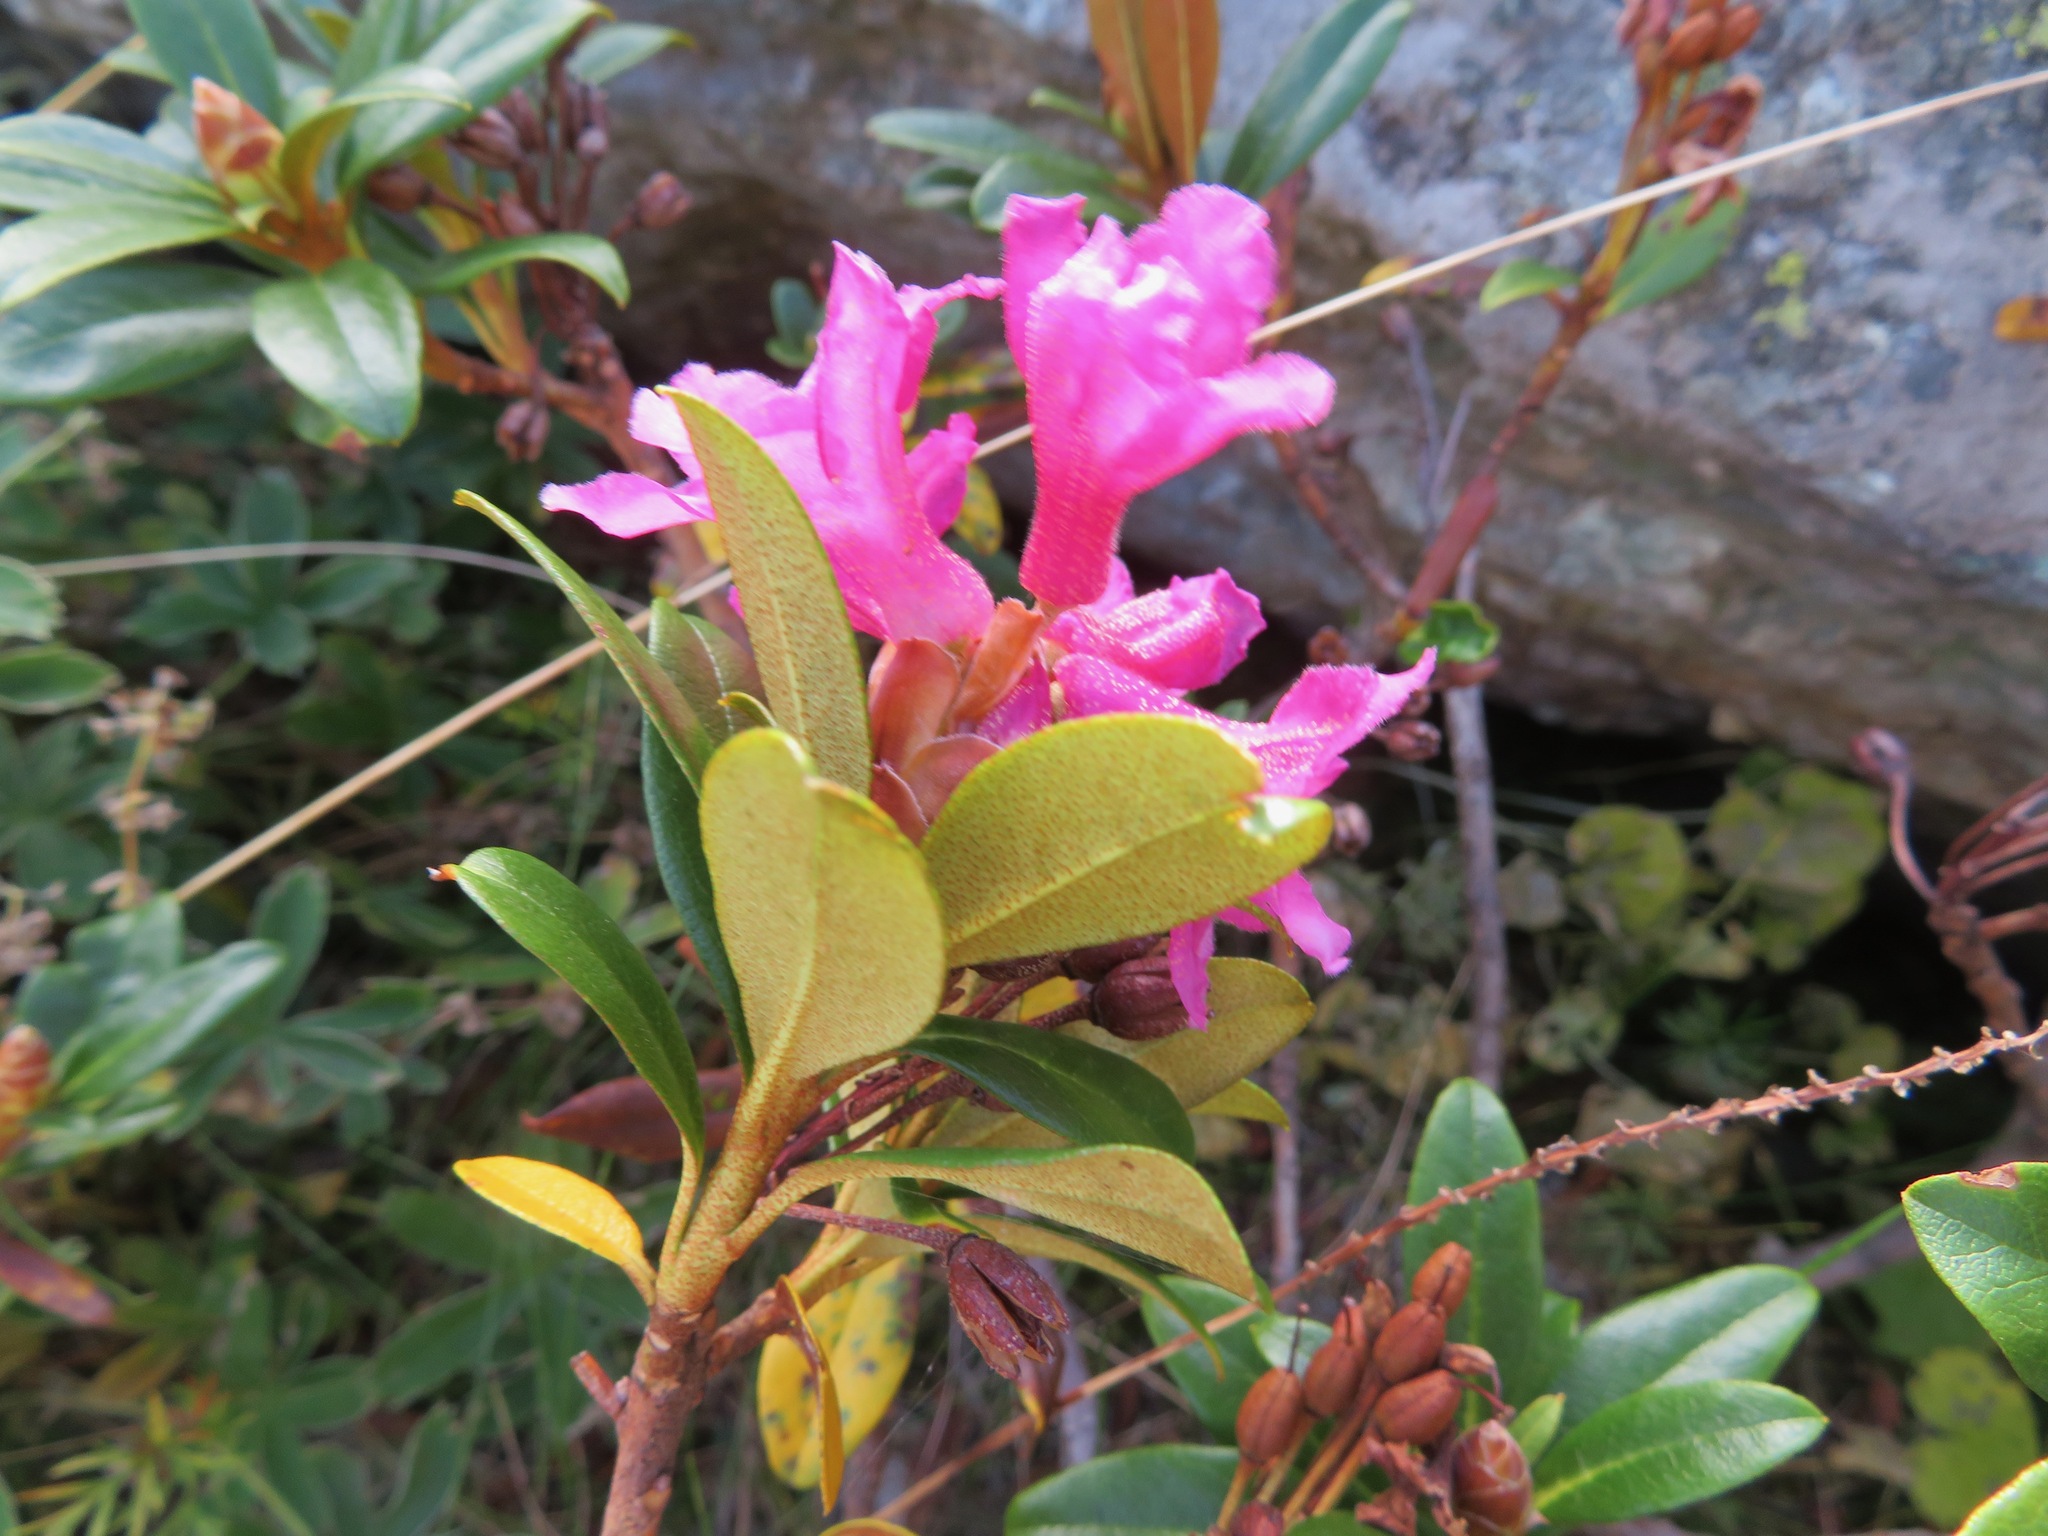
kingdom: Plantae
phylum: Tracheophyta
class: Magnoliopsida
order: Ericales
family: Ericaceae
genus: Rhododendron
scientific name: Rhododendron ferrugineum
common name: Alpenrose
